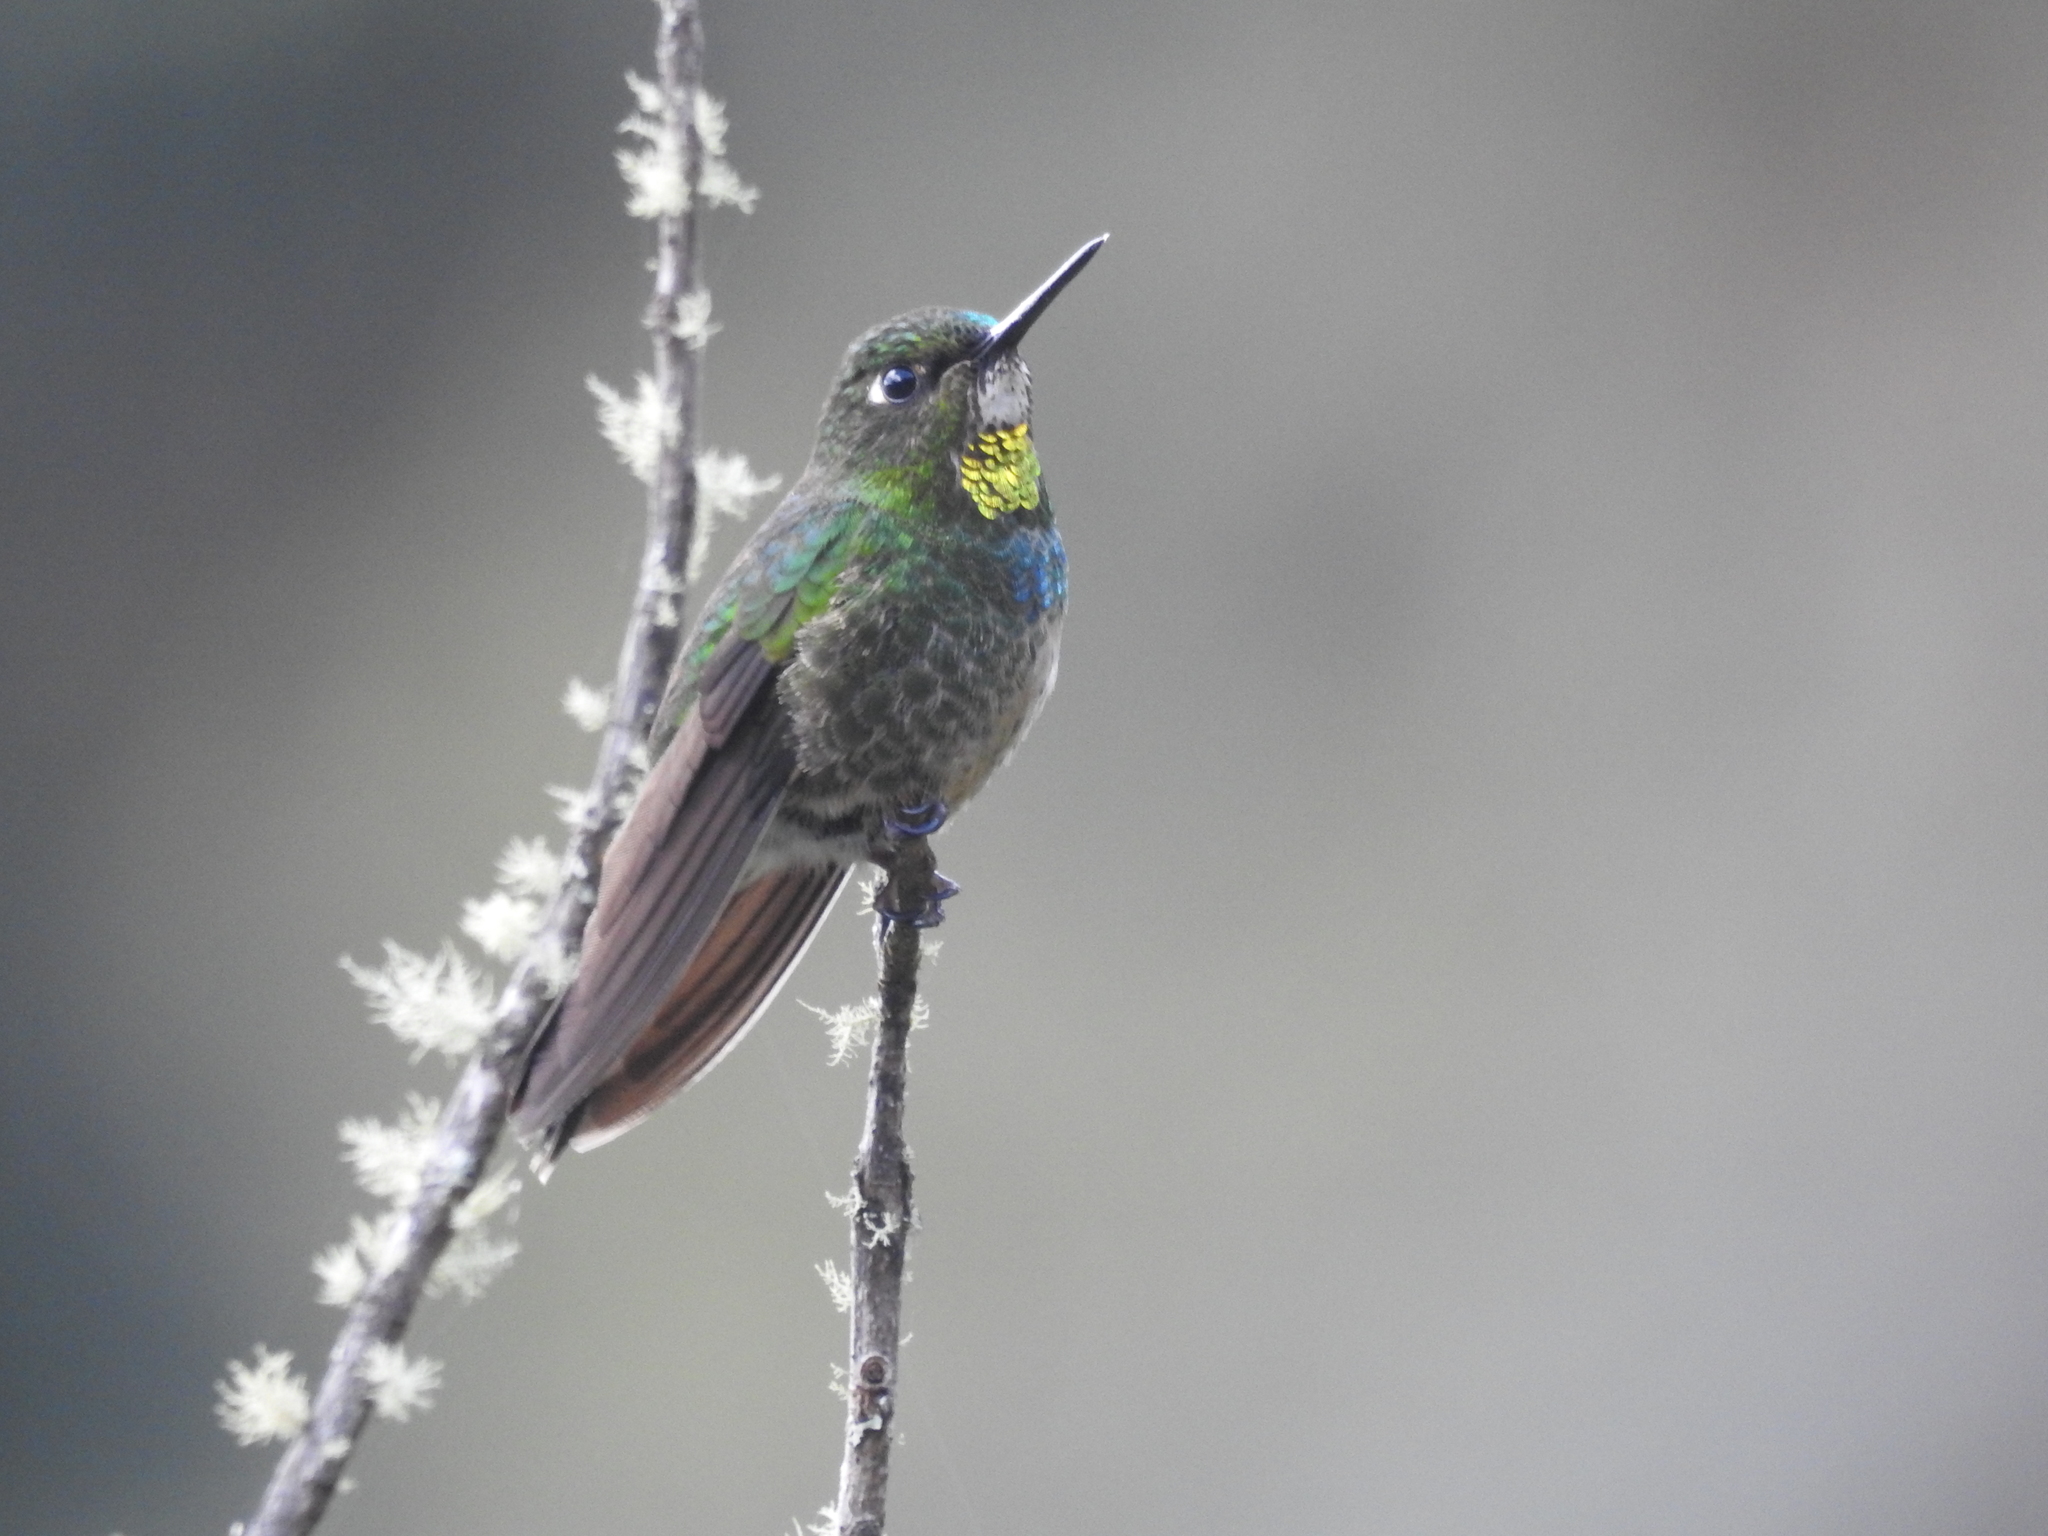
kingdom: Animalia
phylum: Chordata
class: Aves
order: Apodiformes
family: Trochilidae
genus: Heliangelus
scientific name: Heliangelus micraster
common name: Flame-throated sunangel
